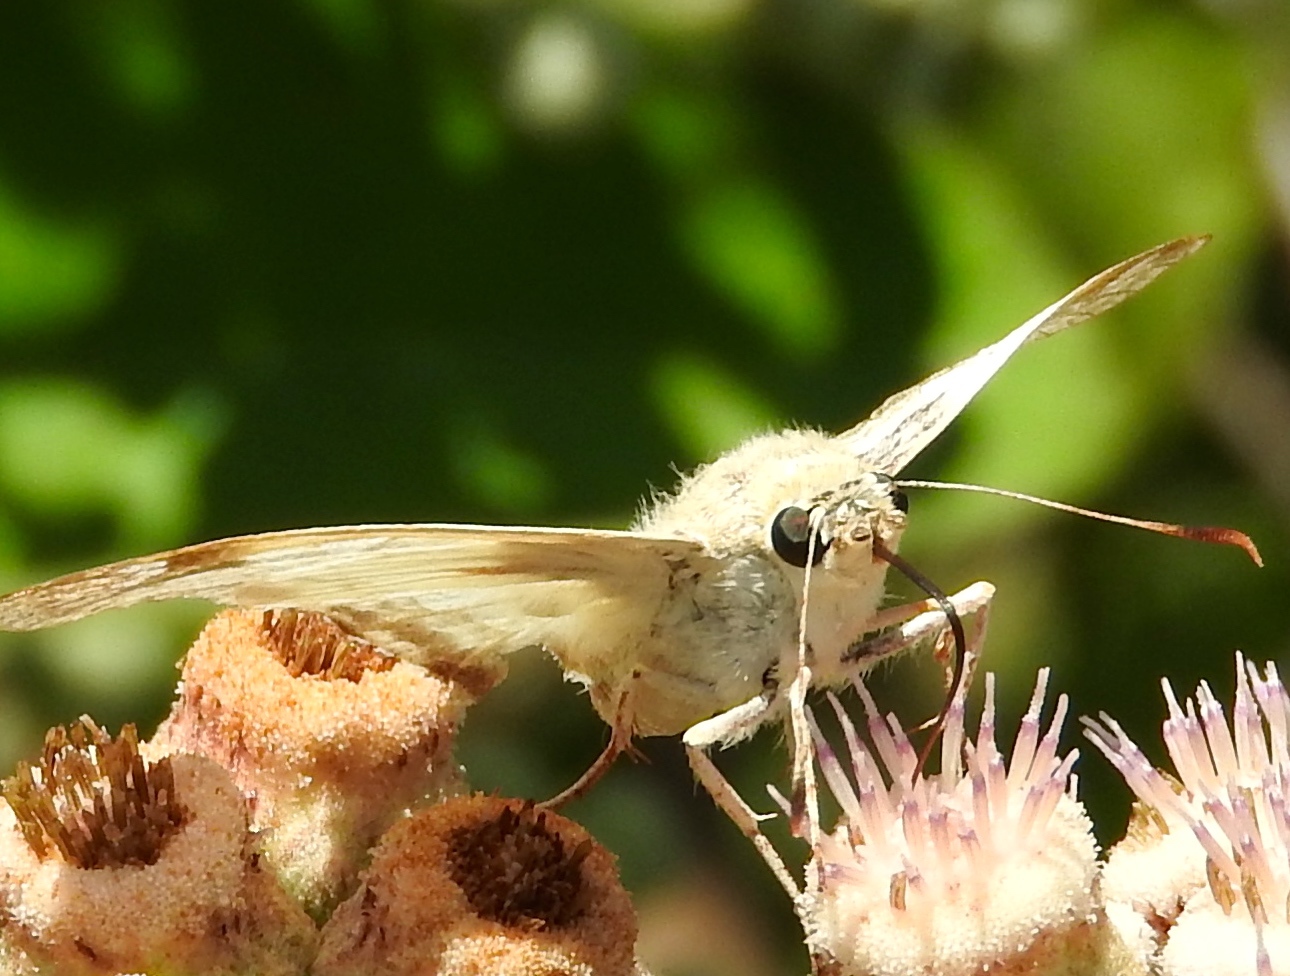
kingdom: Animalia
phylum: Arthropoda
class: Insecta
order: Lepidoptera
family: Hesperiidae
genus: Mylon
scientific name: Mylon
